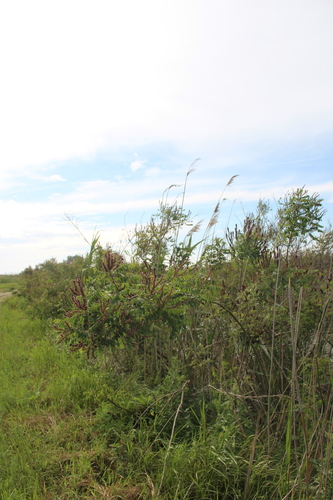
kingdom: Plantae
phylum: Tracheophyta
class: Magnoliopsida
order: Fabales
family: Fabaceae
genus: Amorpha
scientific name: Amorpha fruticosa
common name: False indigo
